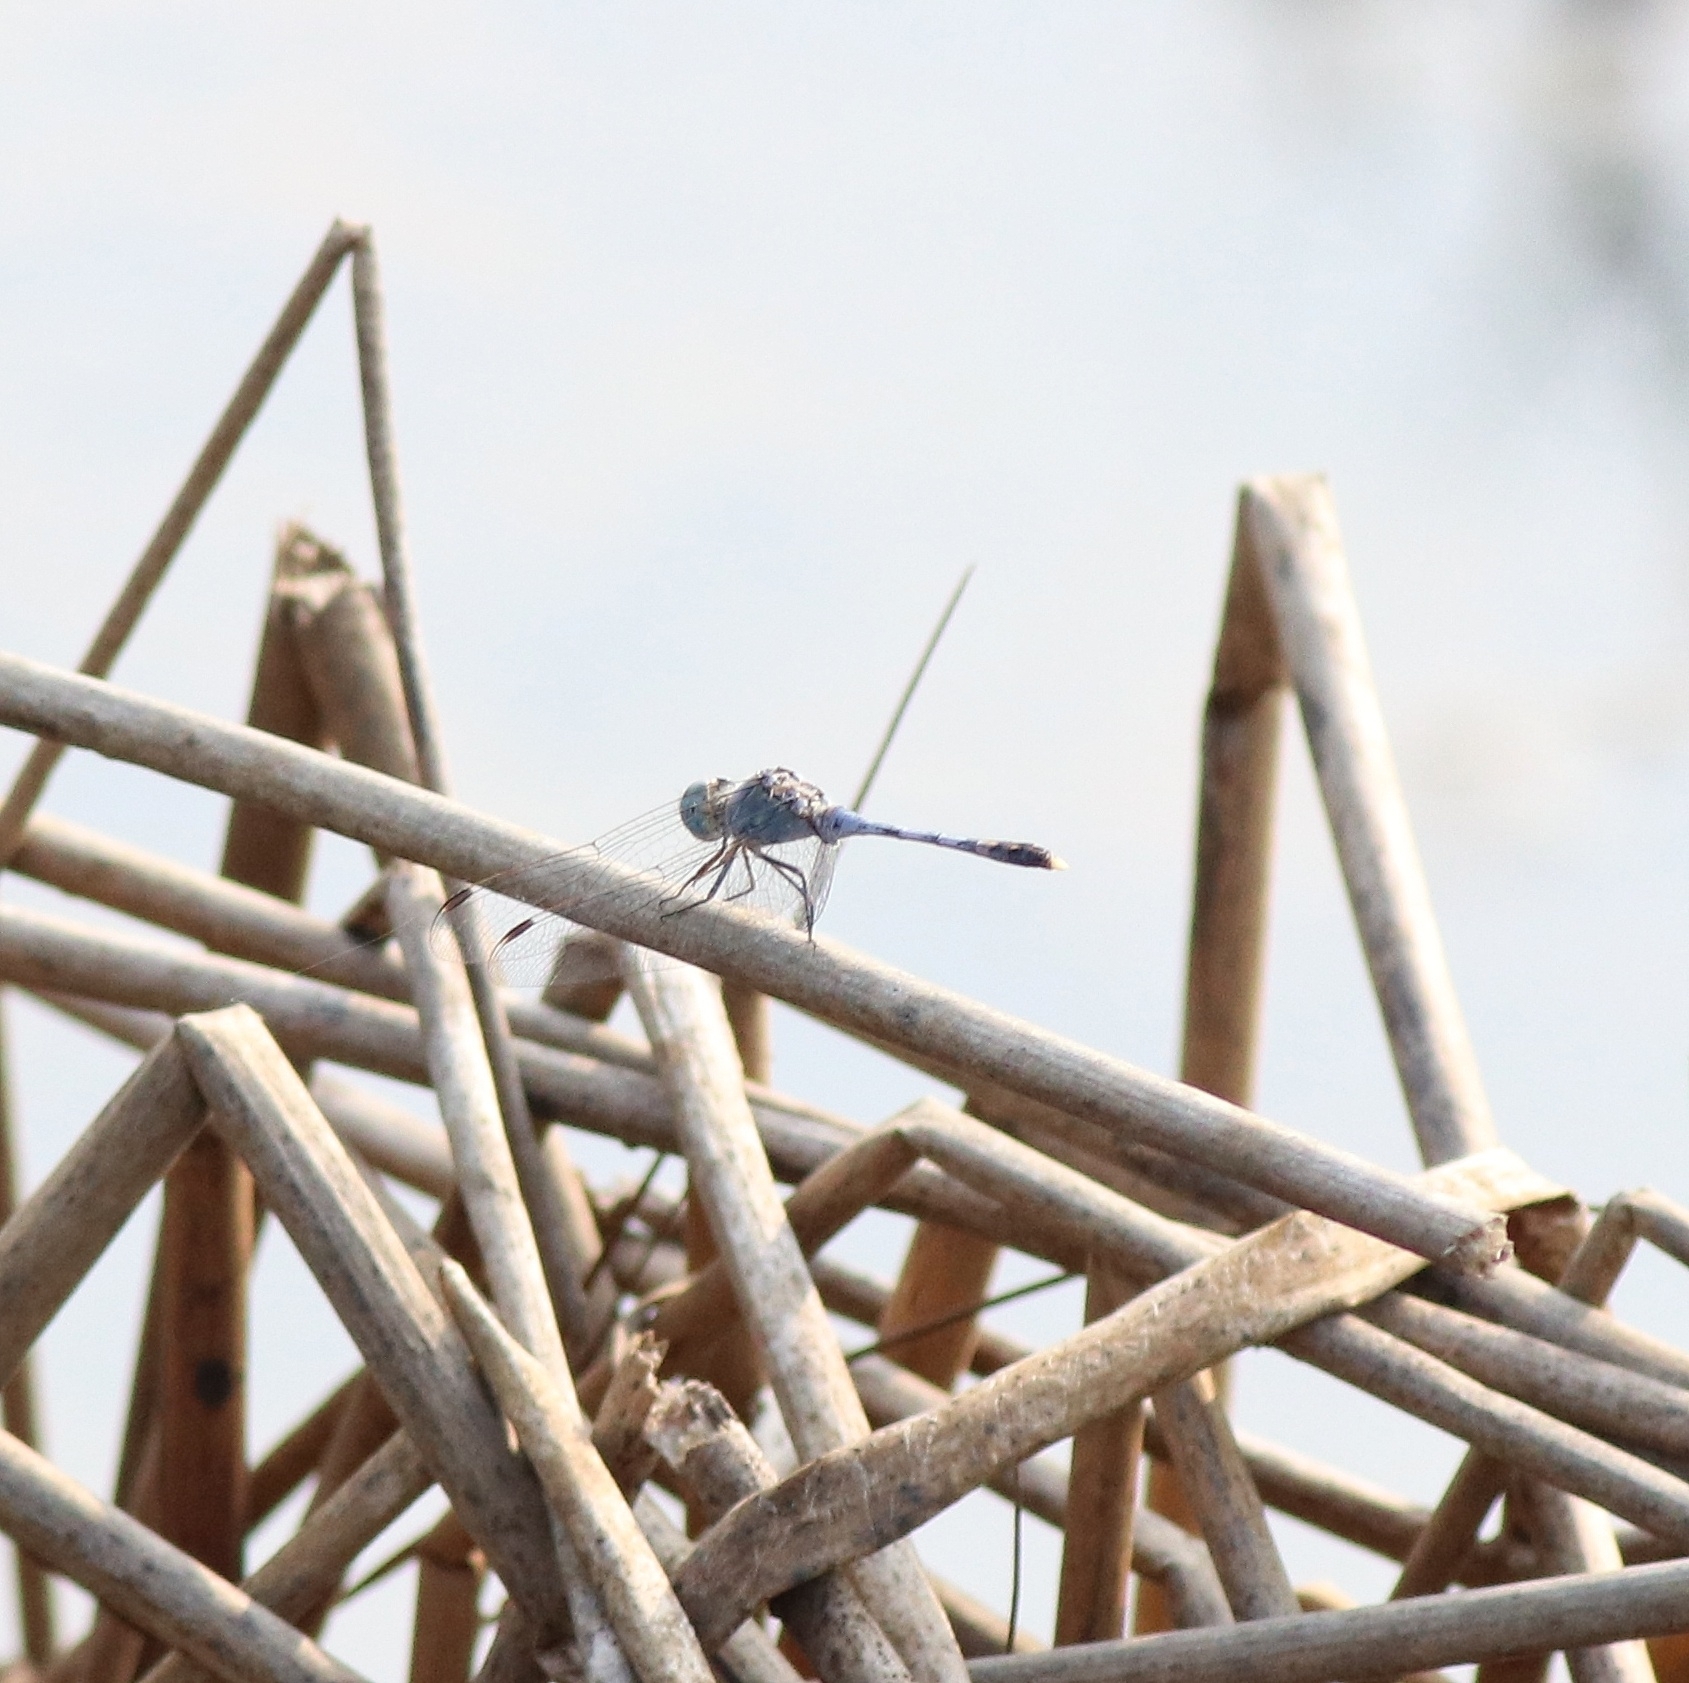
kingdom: Animalia
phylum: Arthropoda
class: Insecta
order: Odonata
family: Libellulidae
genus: Diplacodes
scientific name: Diplacodes trivialis
